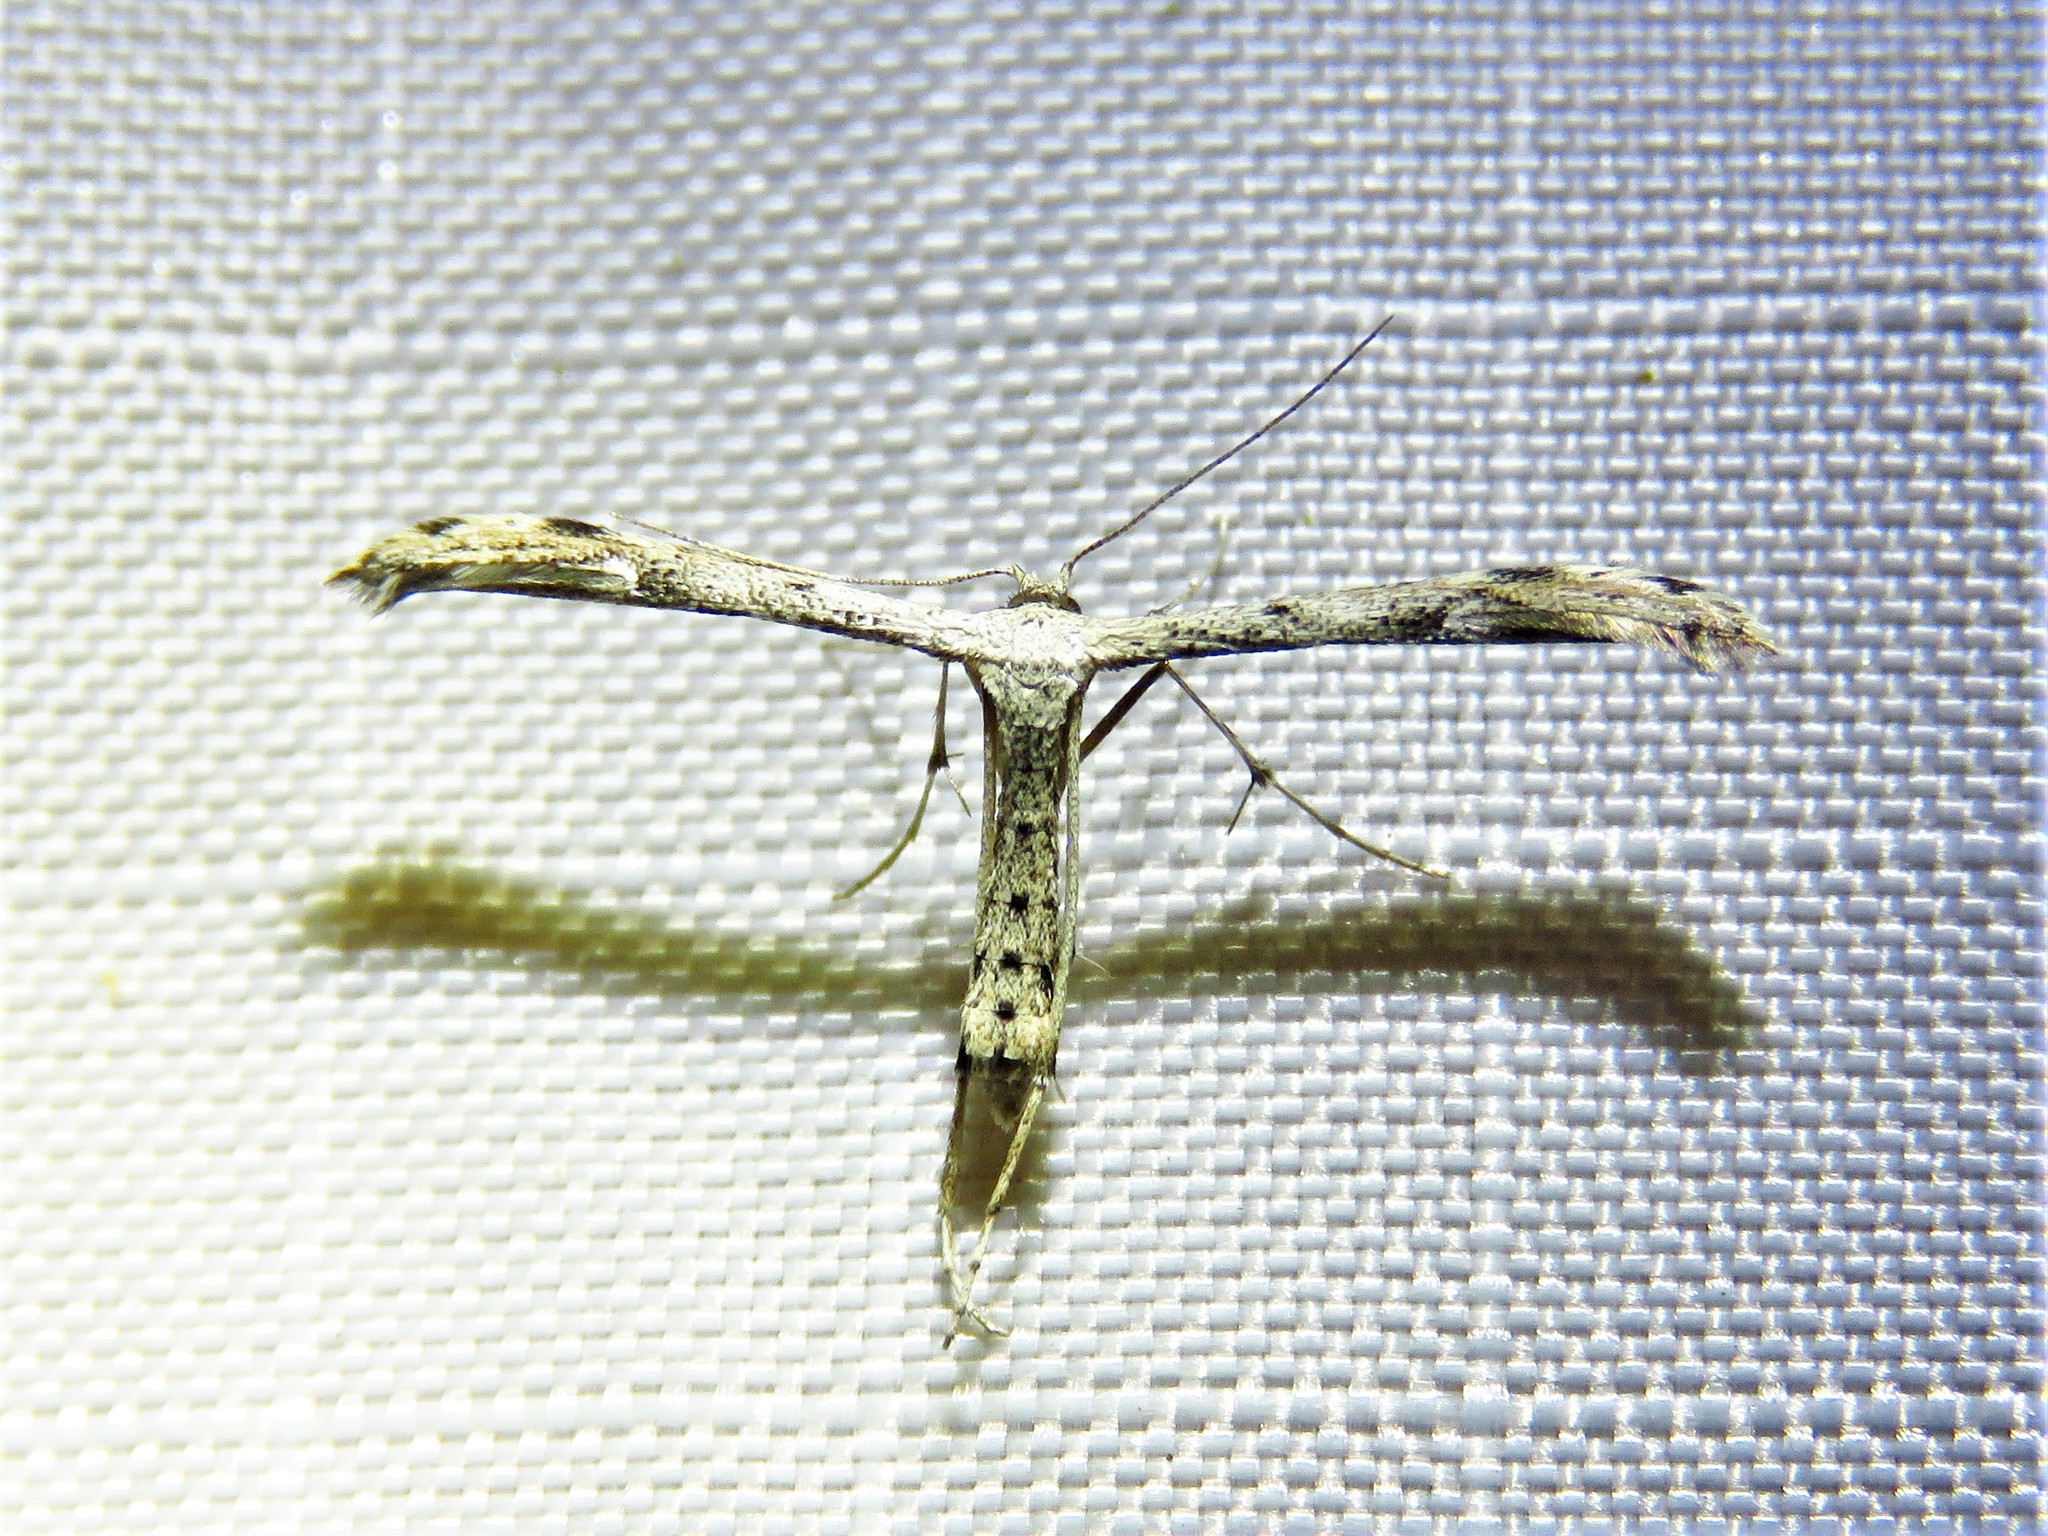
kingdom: Animalia
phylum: Arthropoda
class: Insecta
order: Lepidoptera
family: Pterophoridae
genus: Adaina
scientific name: Adaina ambrosiae
